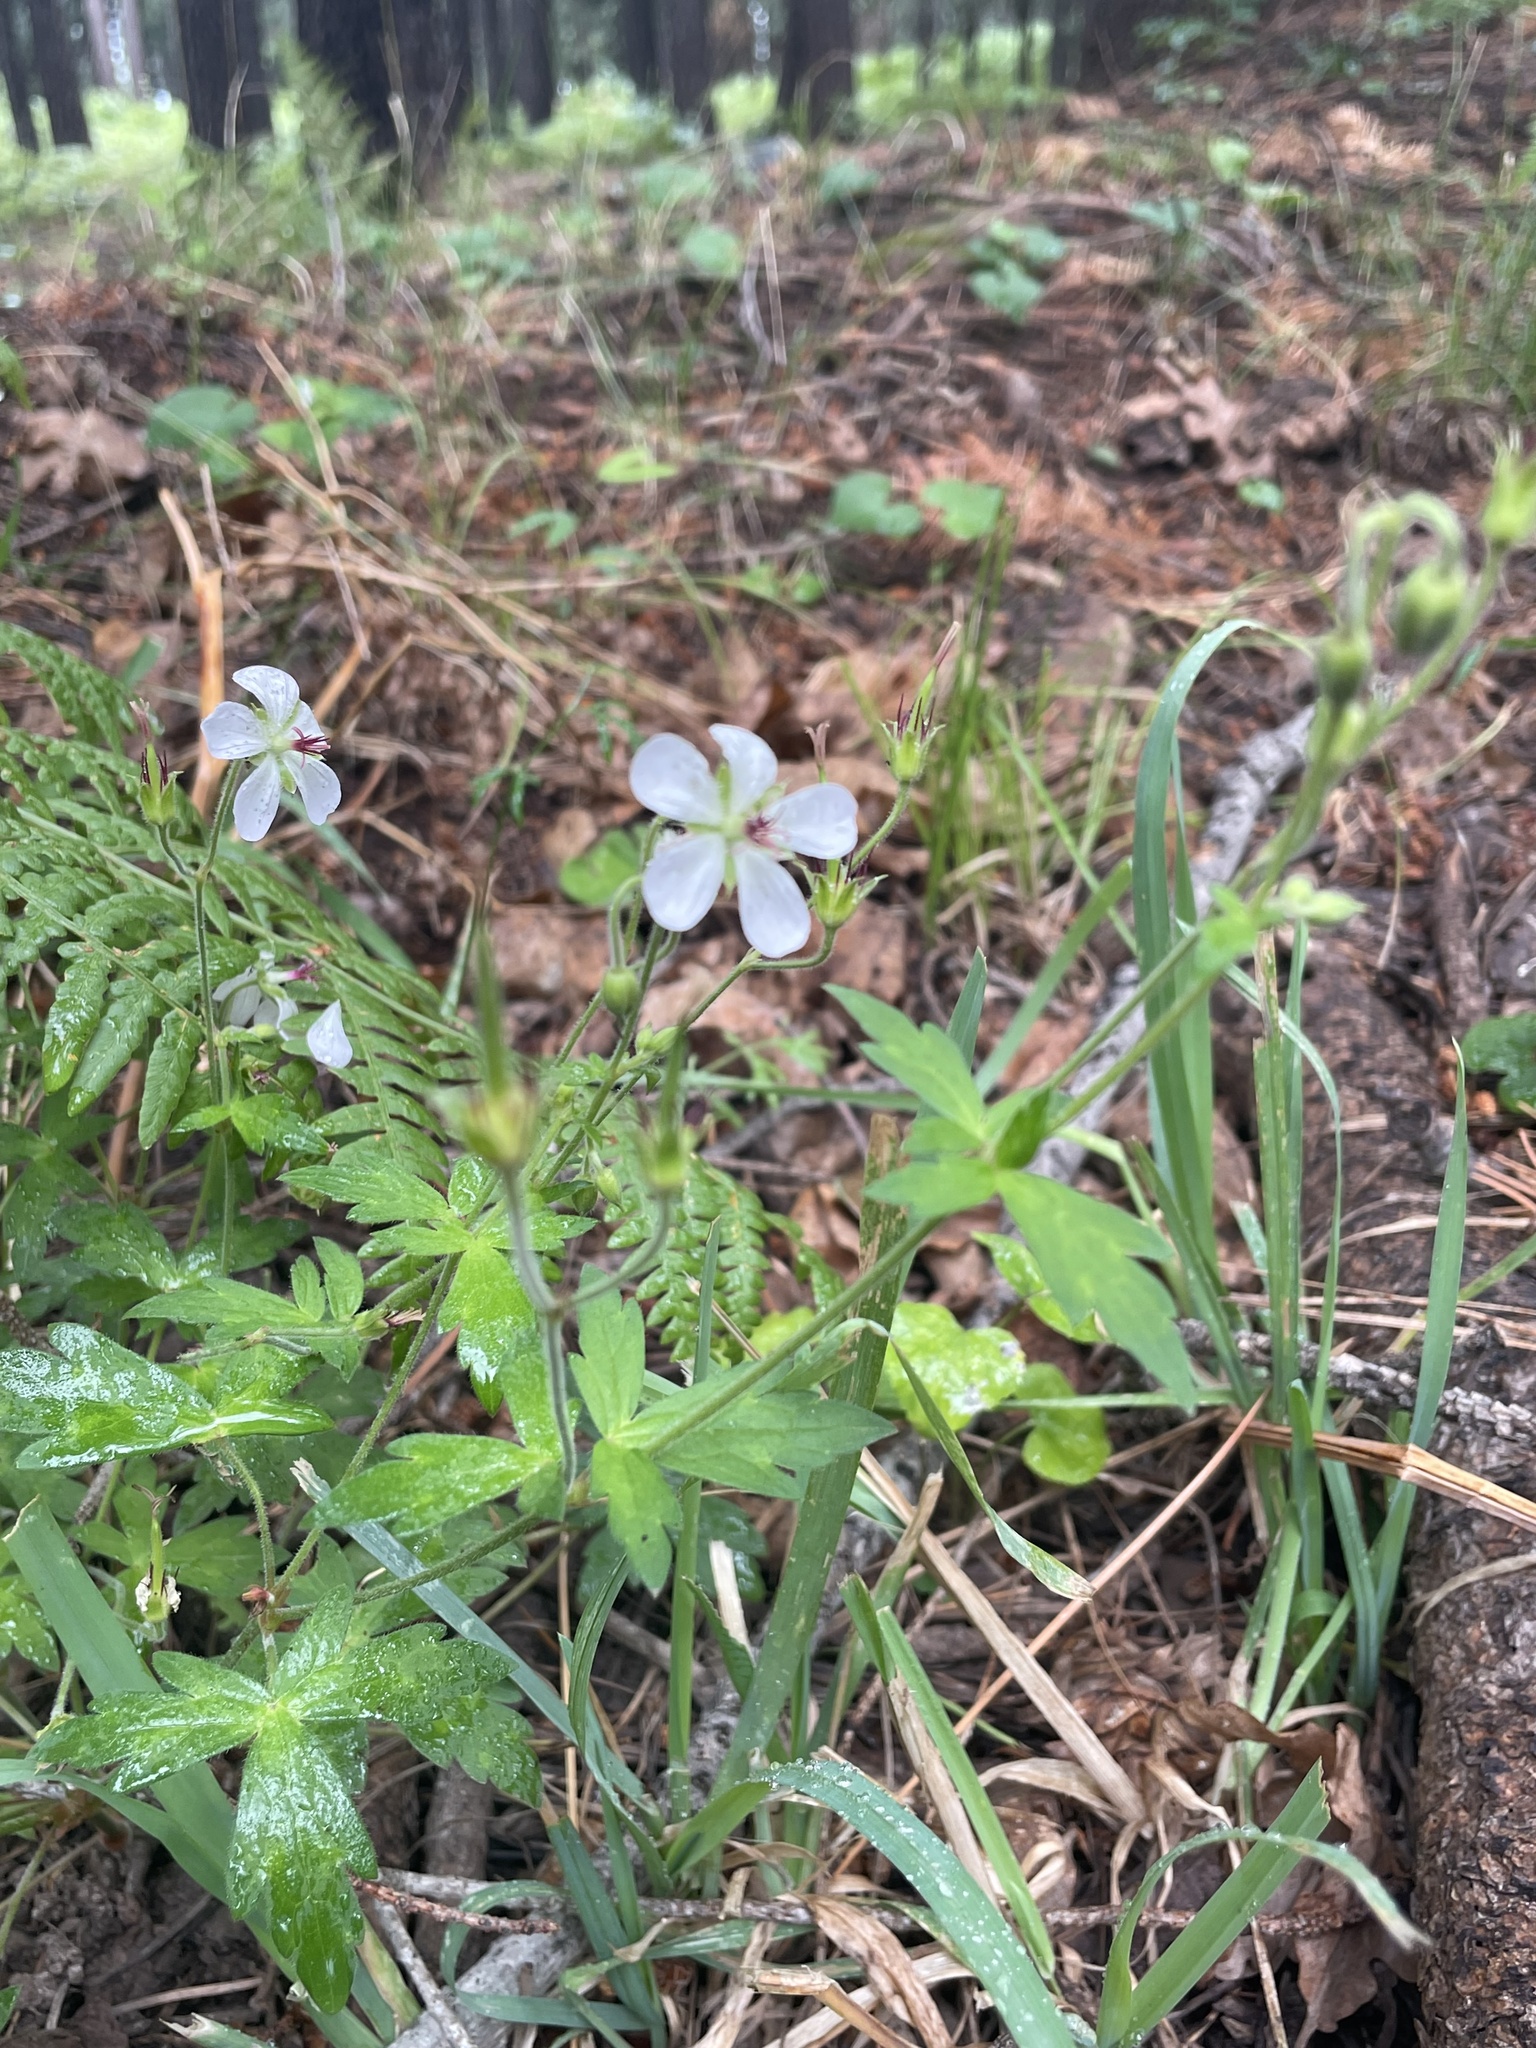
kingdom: Plantae
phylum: Tracheophyta
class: Magnoliopsida
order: Geraniales
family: Geraniaceae
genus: Geranium
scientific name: Geranium richardsonii
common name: Richardson's crane's-bill
